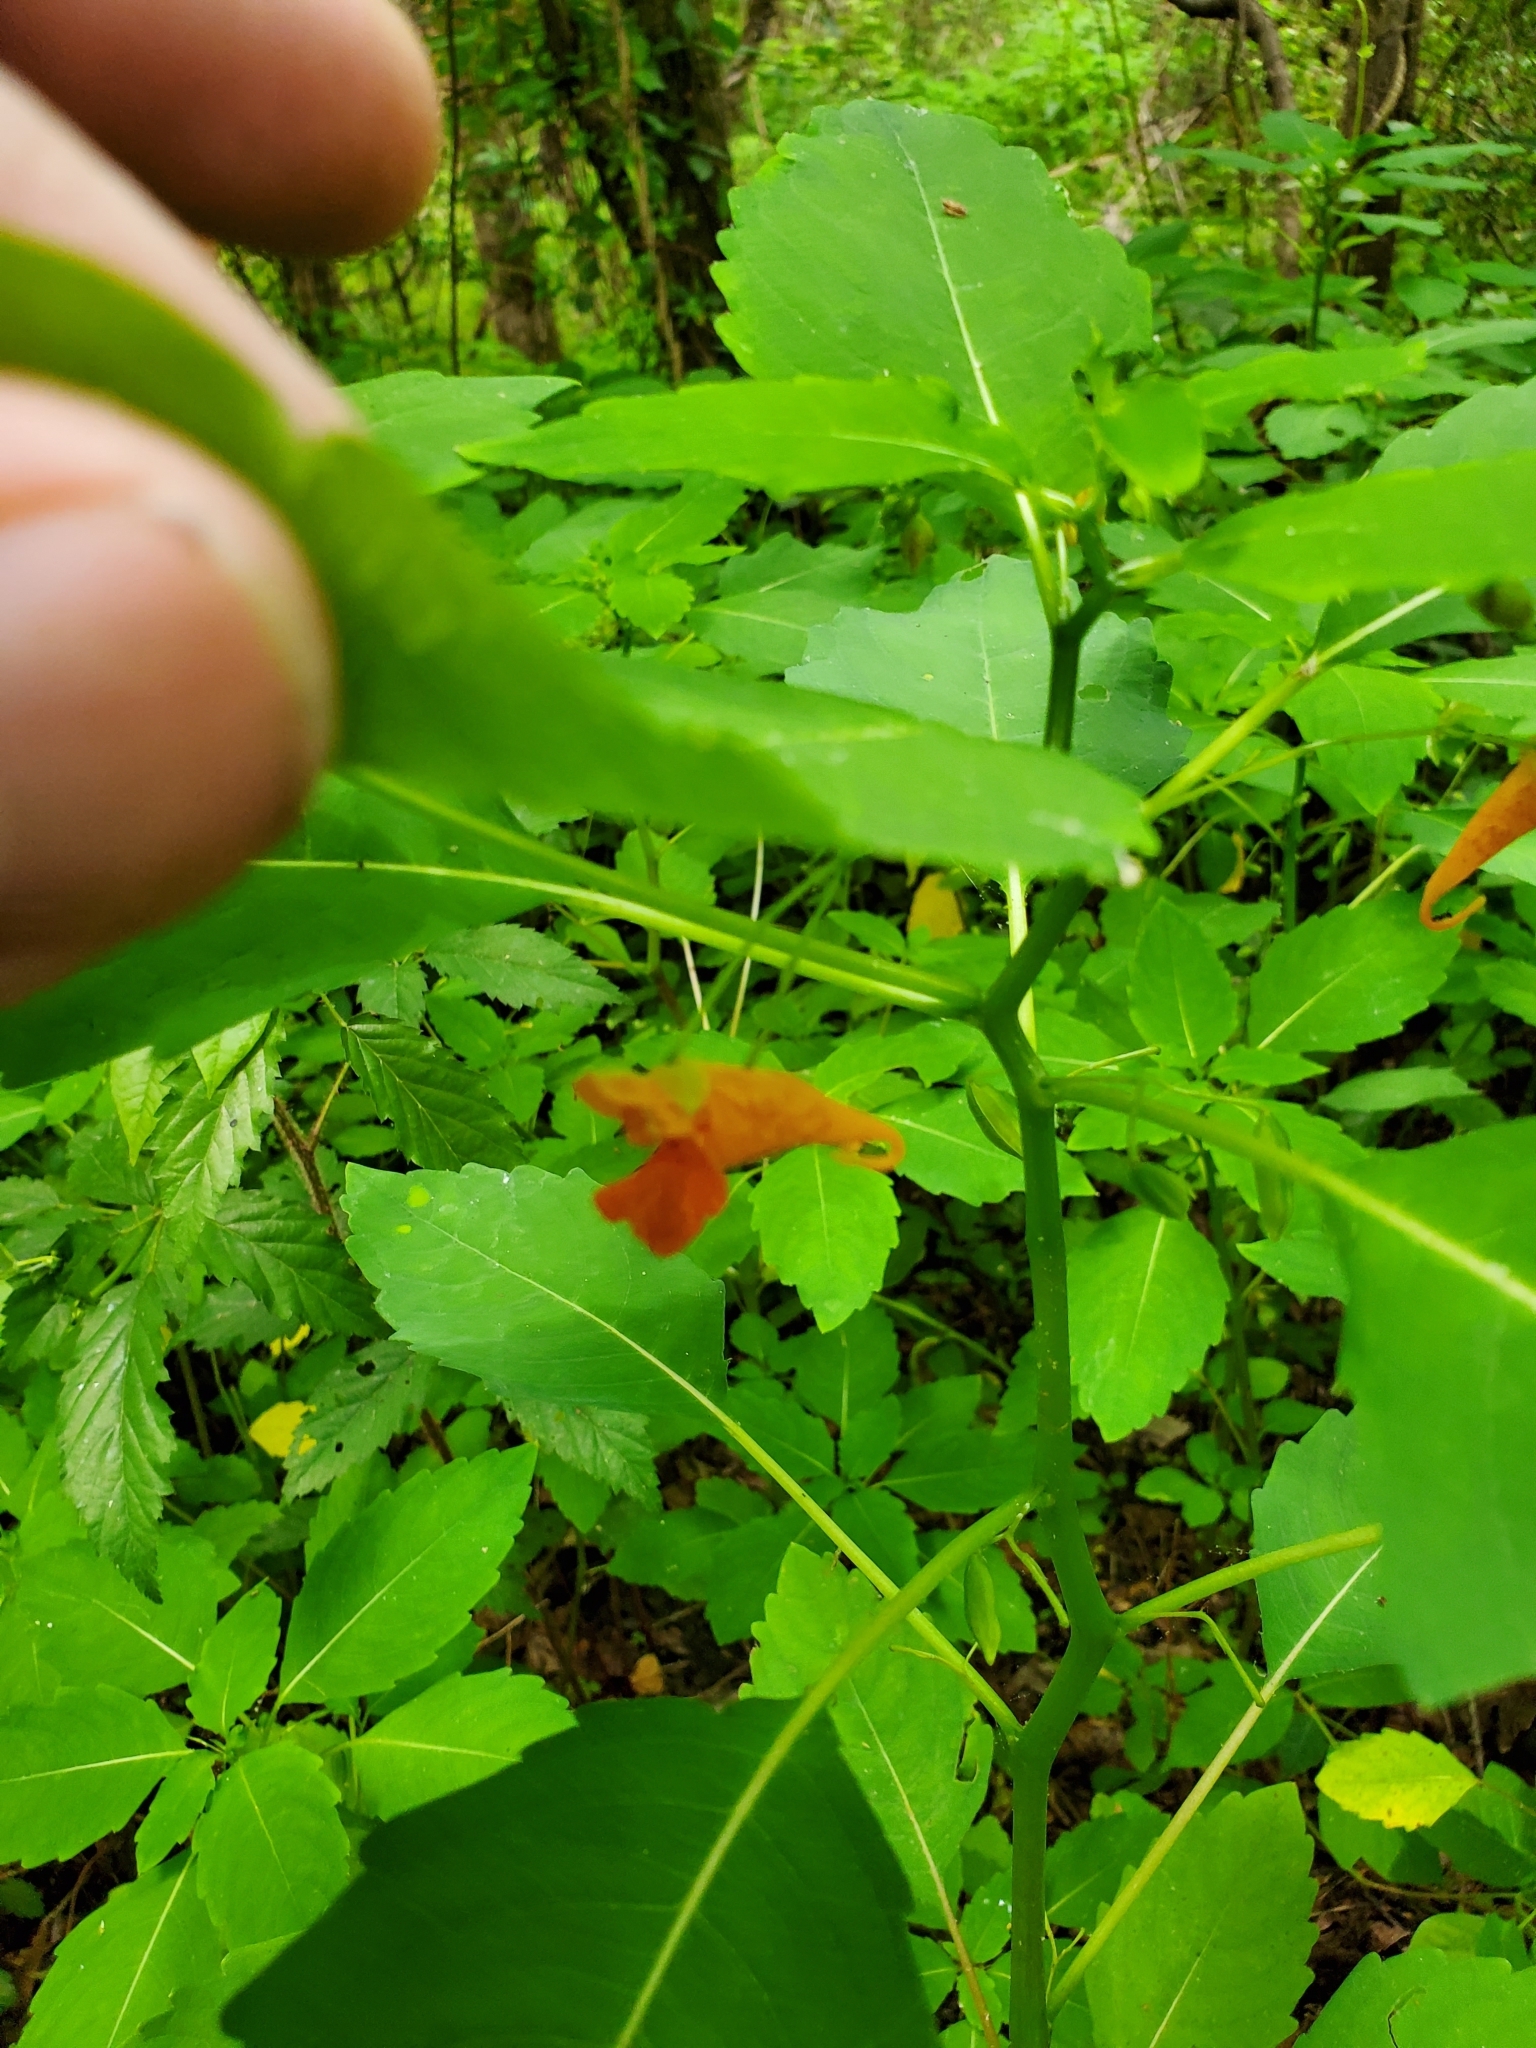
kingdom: Plantae
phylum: Tracheophyta
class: Magnoliopsida
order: Ericales
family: Balsaminaceae
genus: Impatiens
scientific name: Impatiens capensis
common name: Orange balsam
